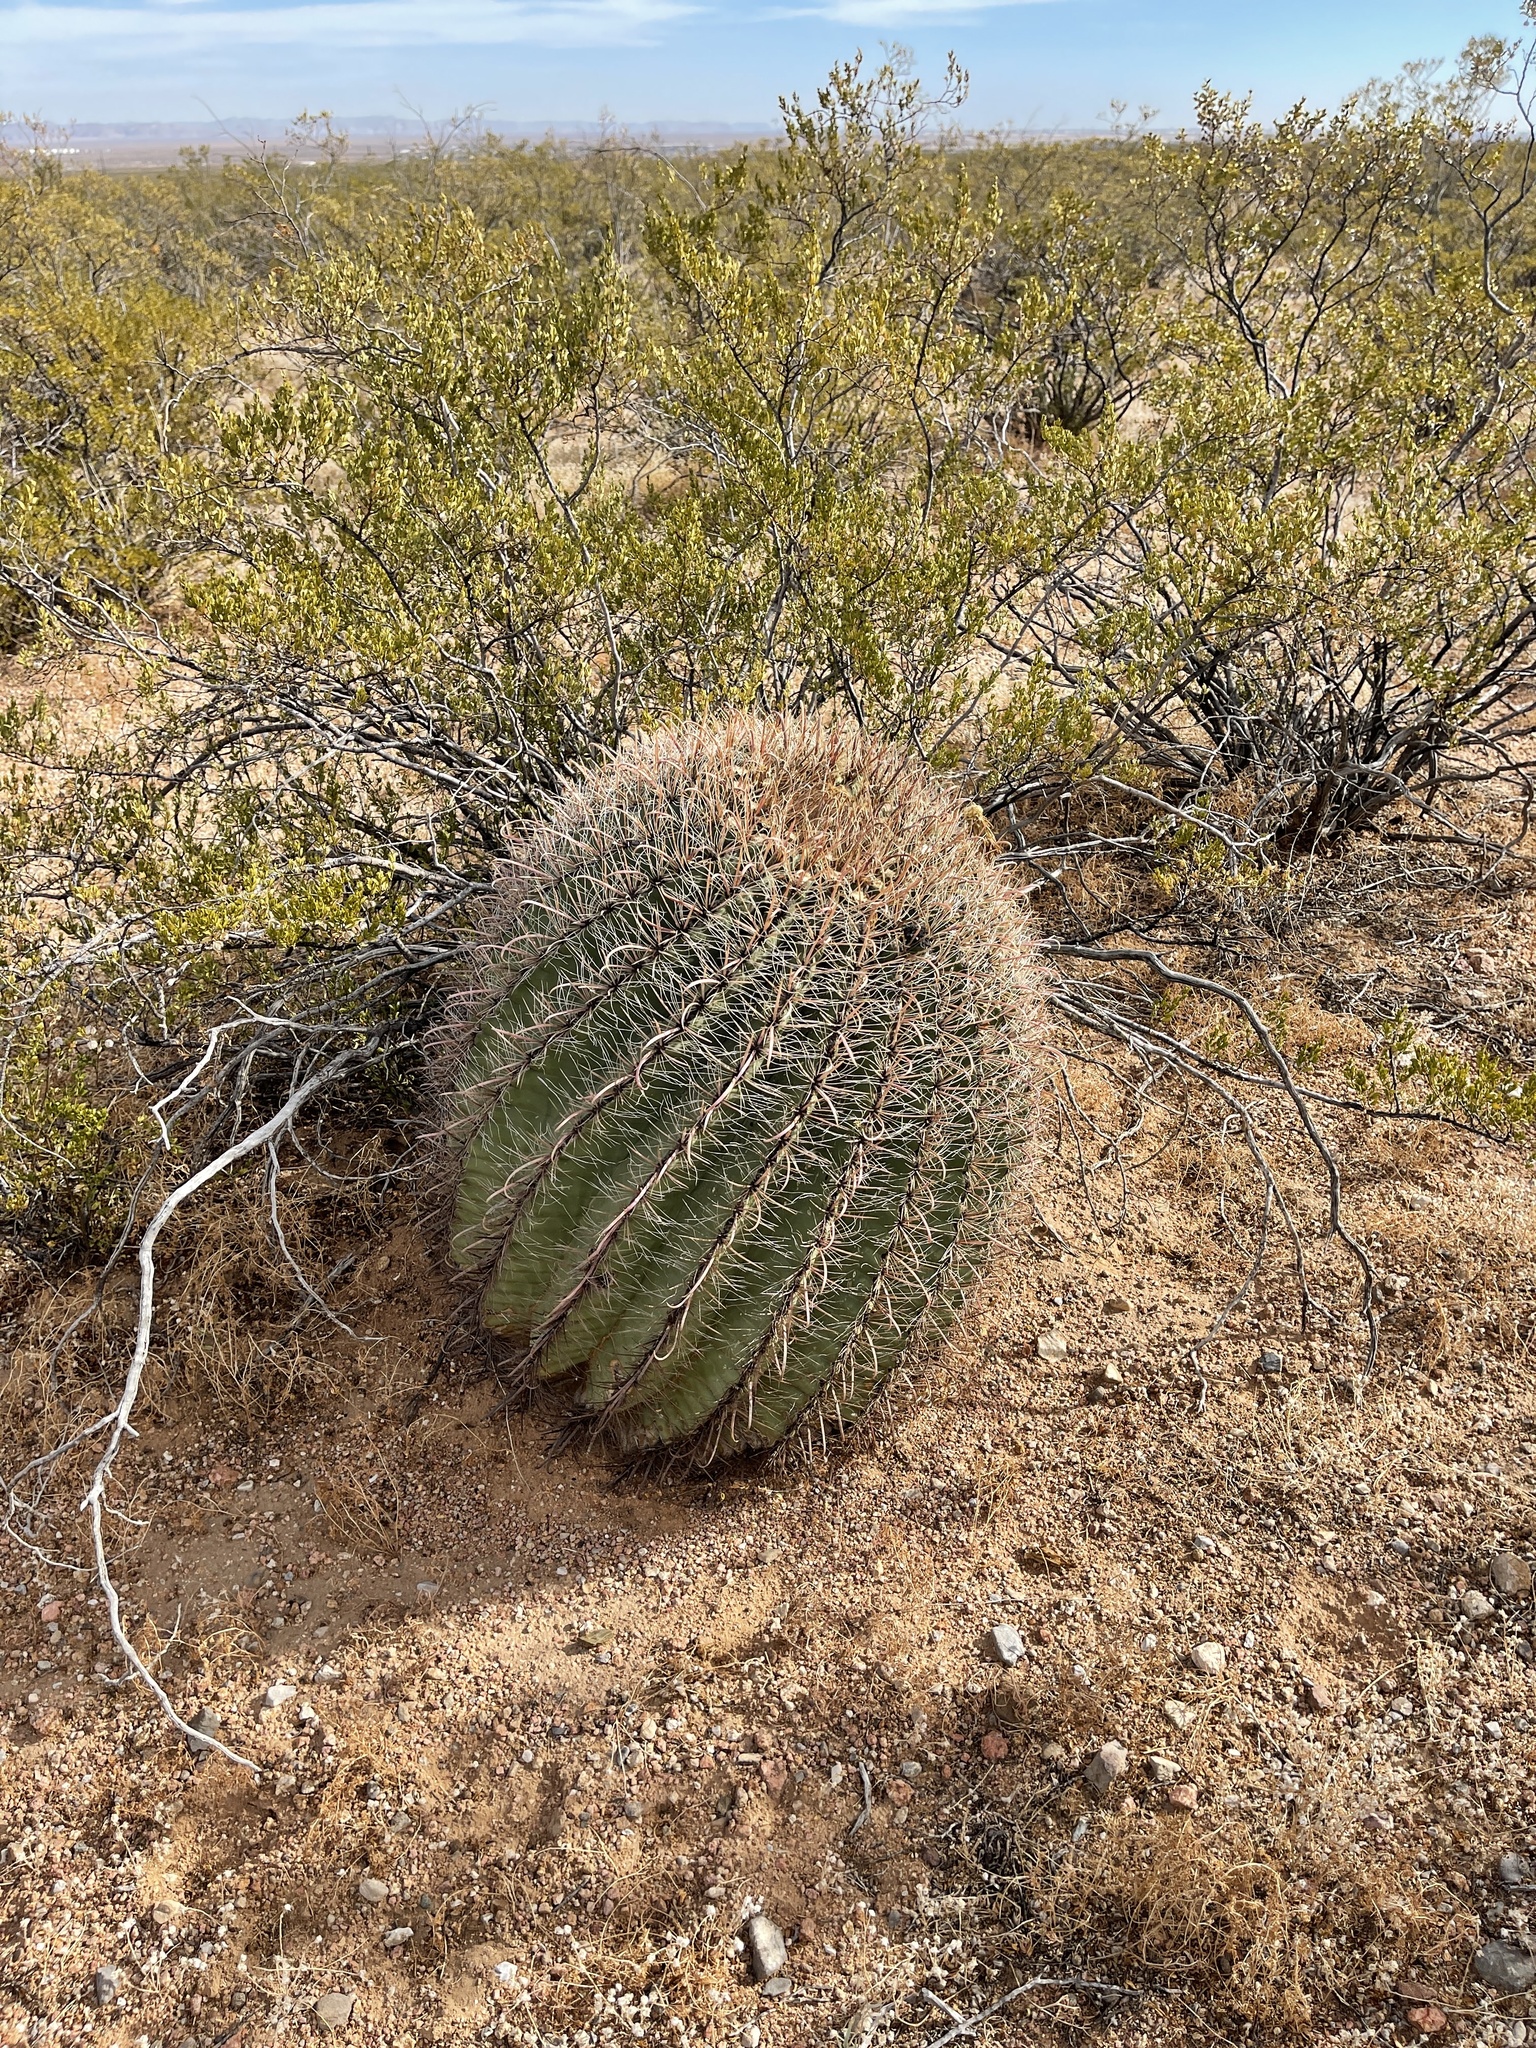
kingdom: Plantae
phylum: Tracheophyta
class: Magnoliopsida
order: Caryophyllales
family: Cactaceae
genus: Ferocactus
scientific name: Ferocactus wislizeni
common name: Candy barrel cactus
